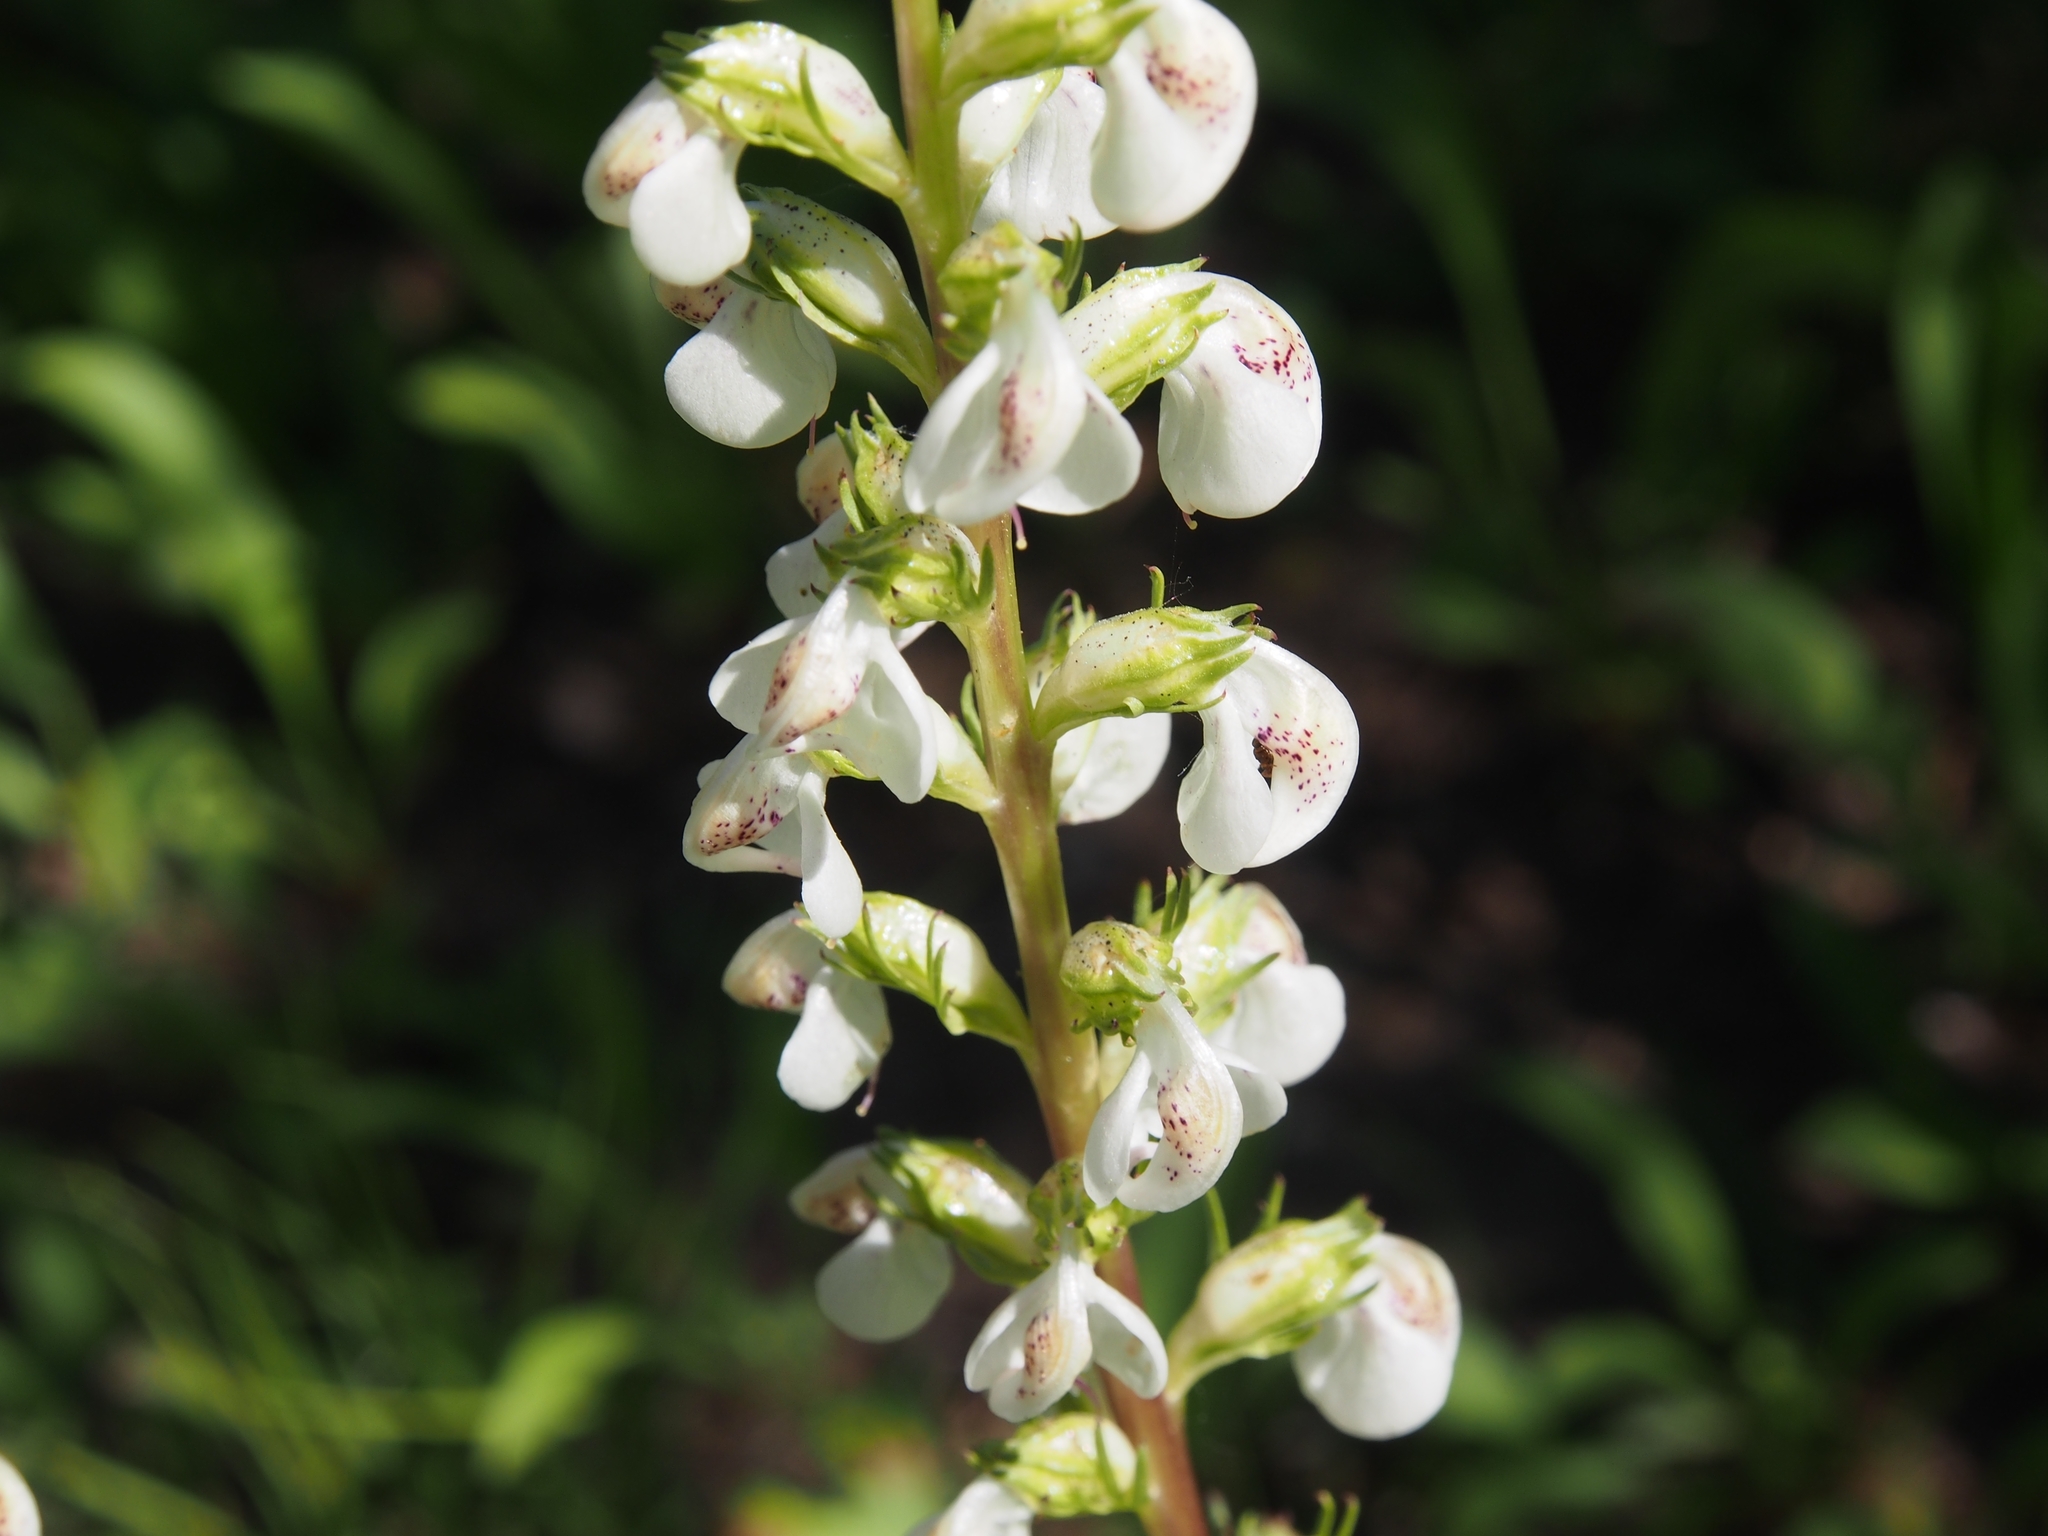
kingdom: Plantae
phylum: Tracheophyta
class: Magnoliopsida
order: Lamiales
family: Orobanchaceae
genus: Pedicularis
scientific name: Pedicularis contorta
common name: Coiled lousewort
